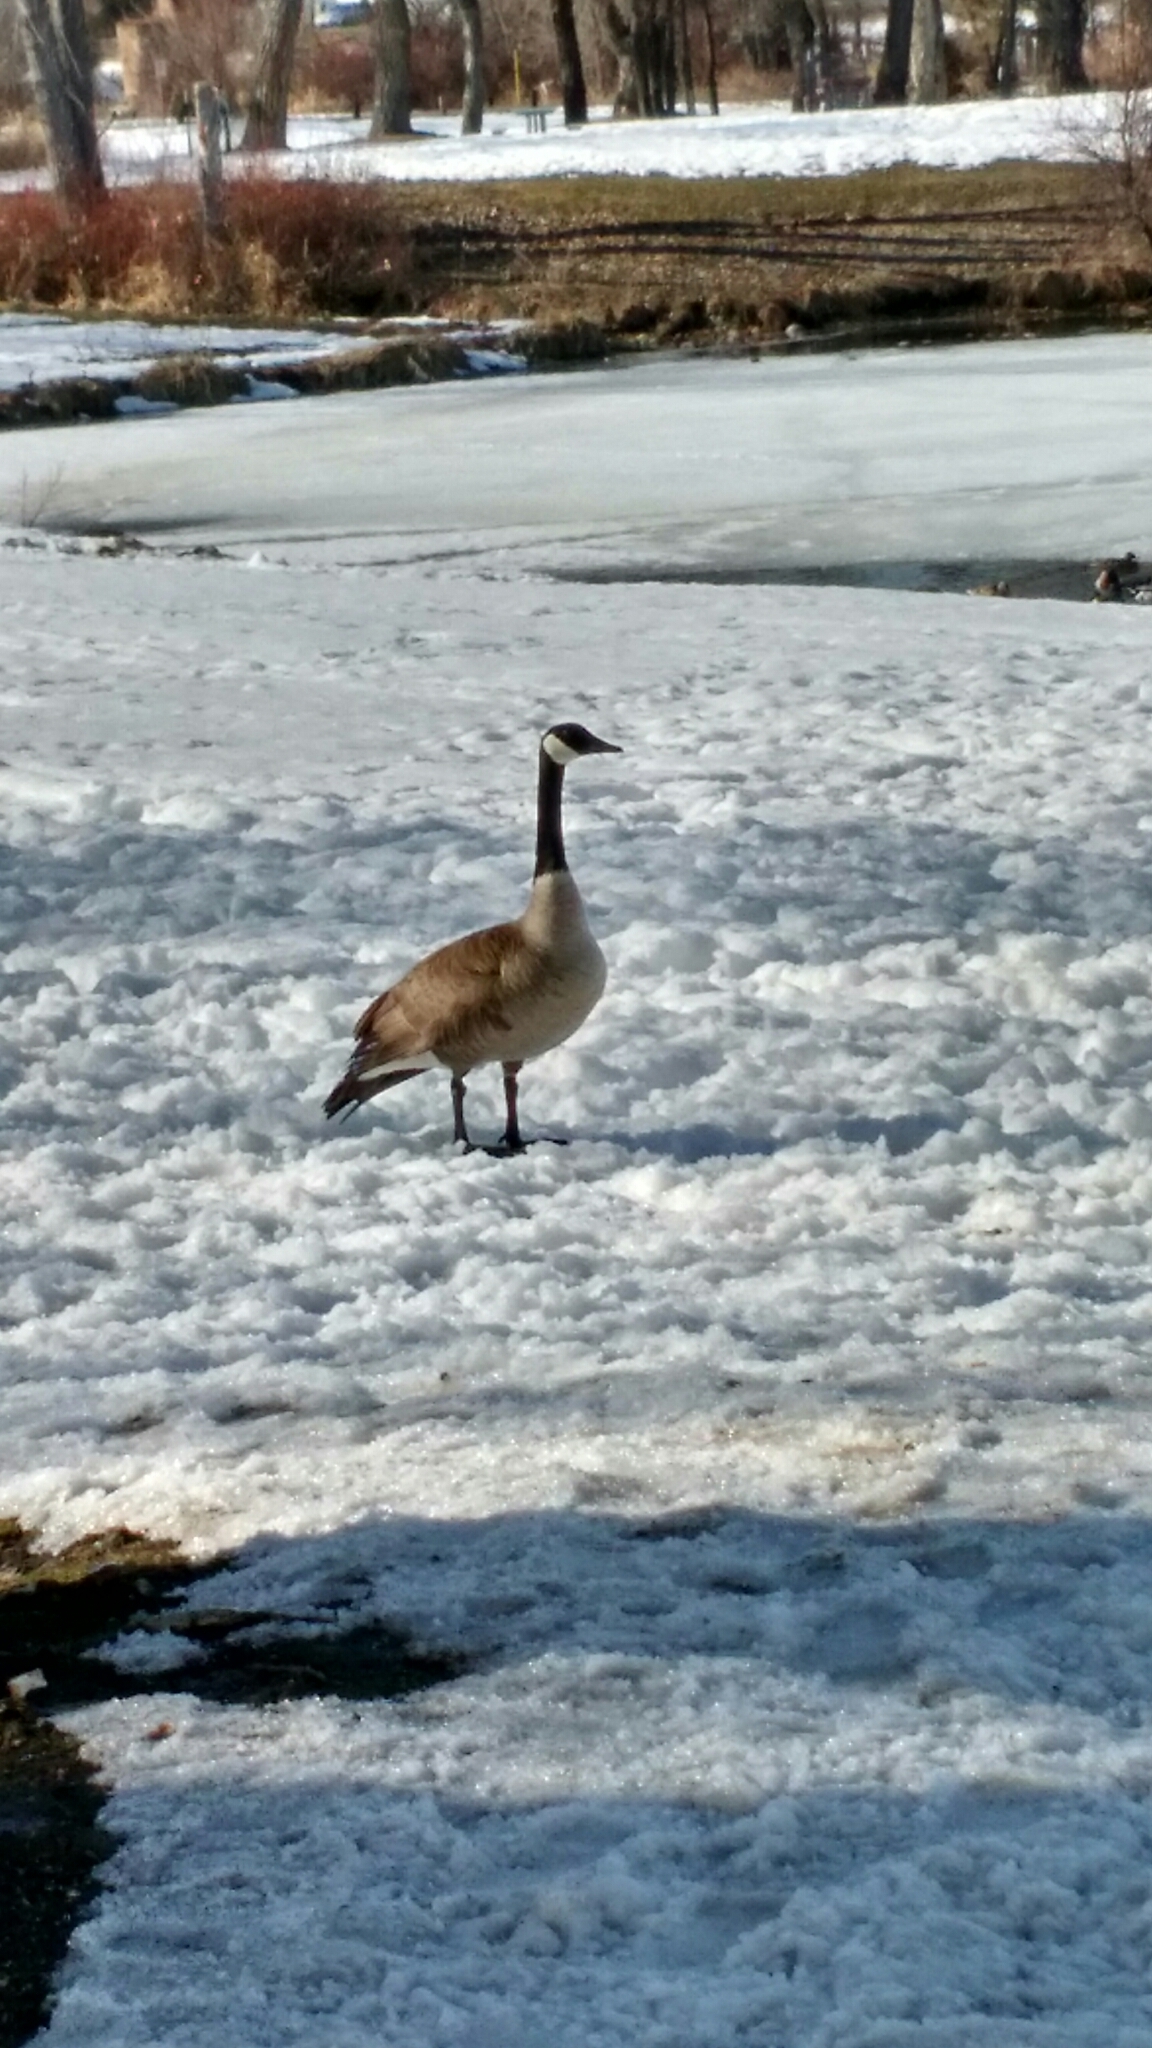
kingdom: Animalia
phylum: Chordata
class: Aves
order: Anseriformes
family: Anatidae
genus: Branta
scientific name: Branta canadensis
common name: Canada goose
